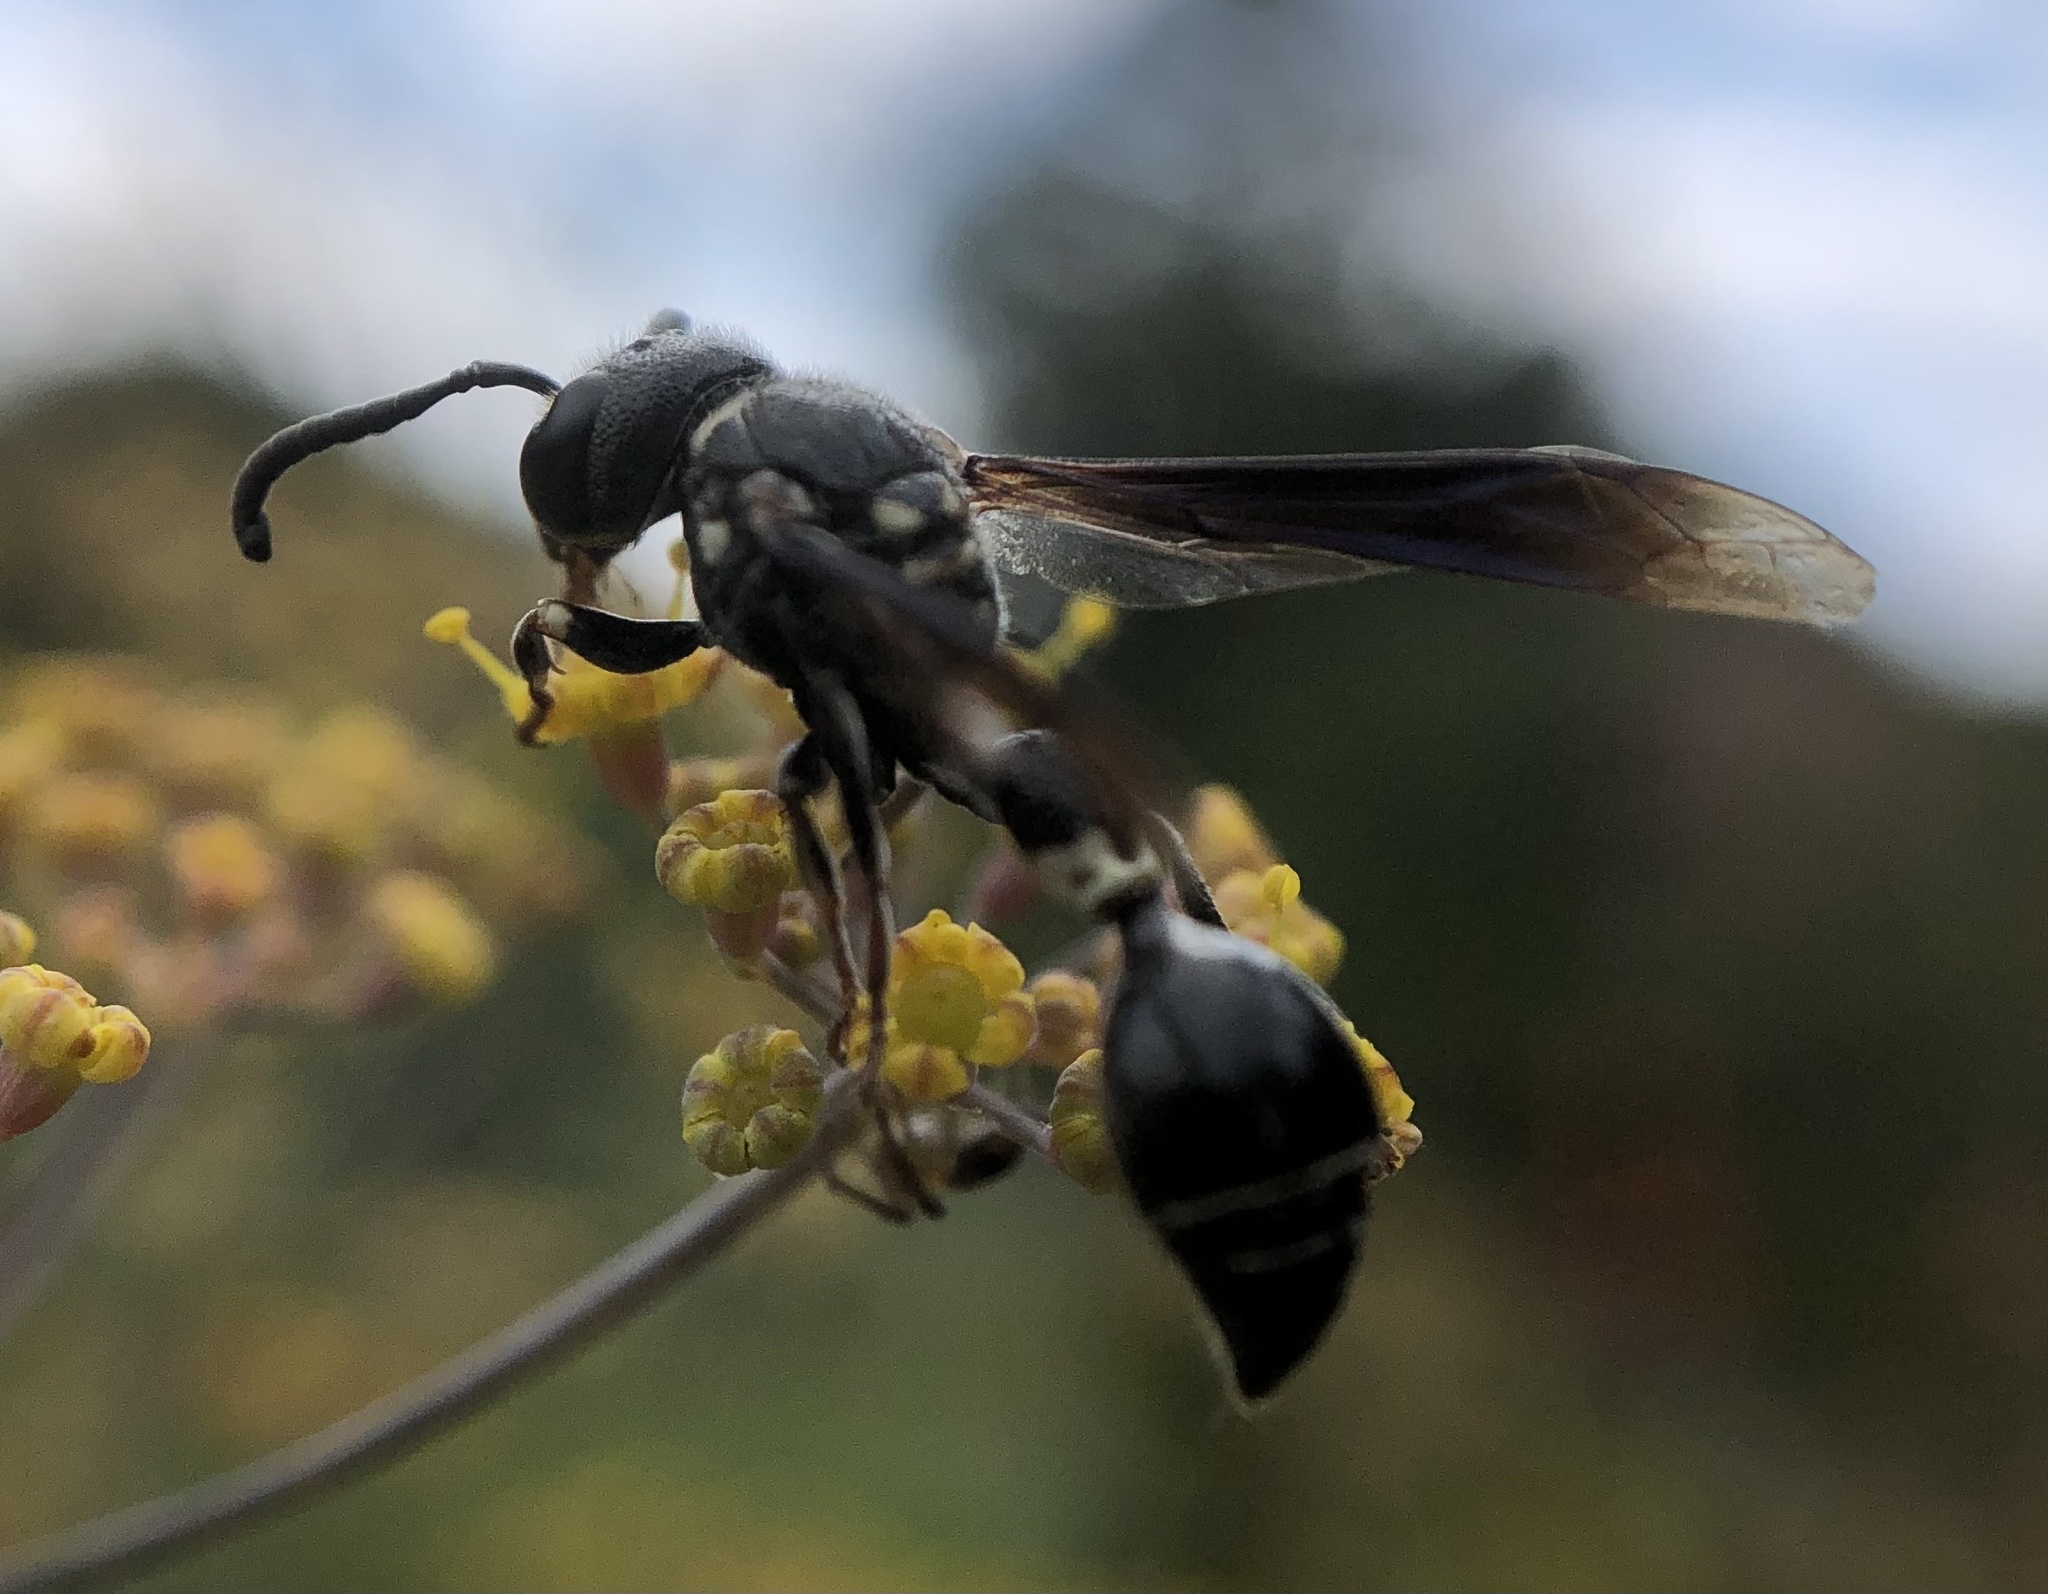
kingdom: Animalia
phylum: Arthropoda
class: Insecta
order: Hymenoptera
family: Eumenidae
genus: Zethus
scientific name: Zethus spinipes
